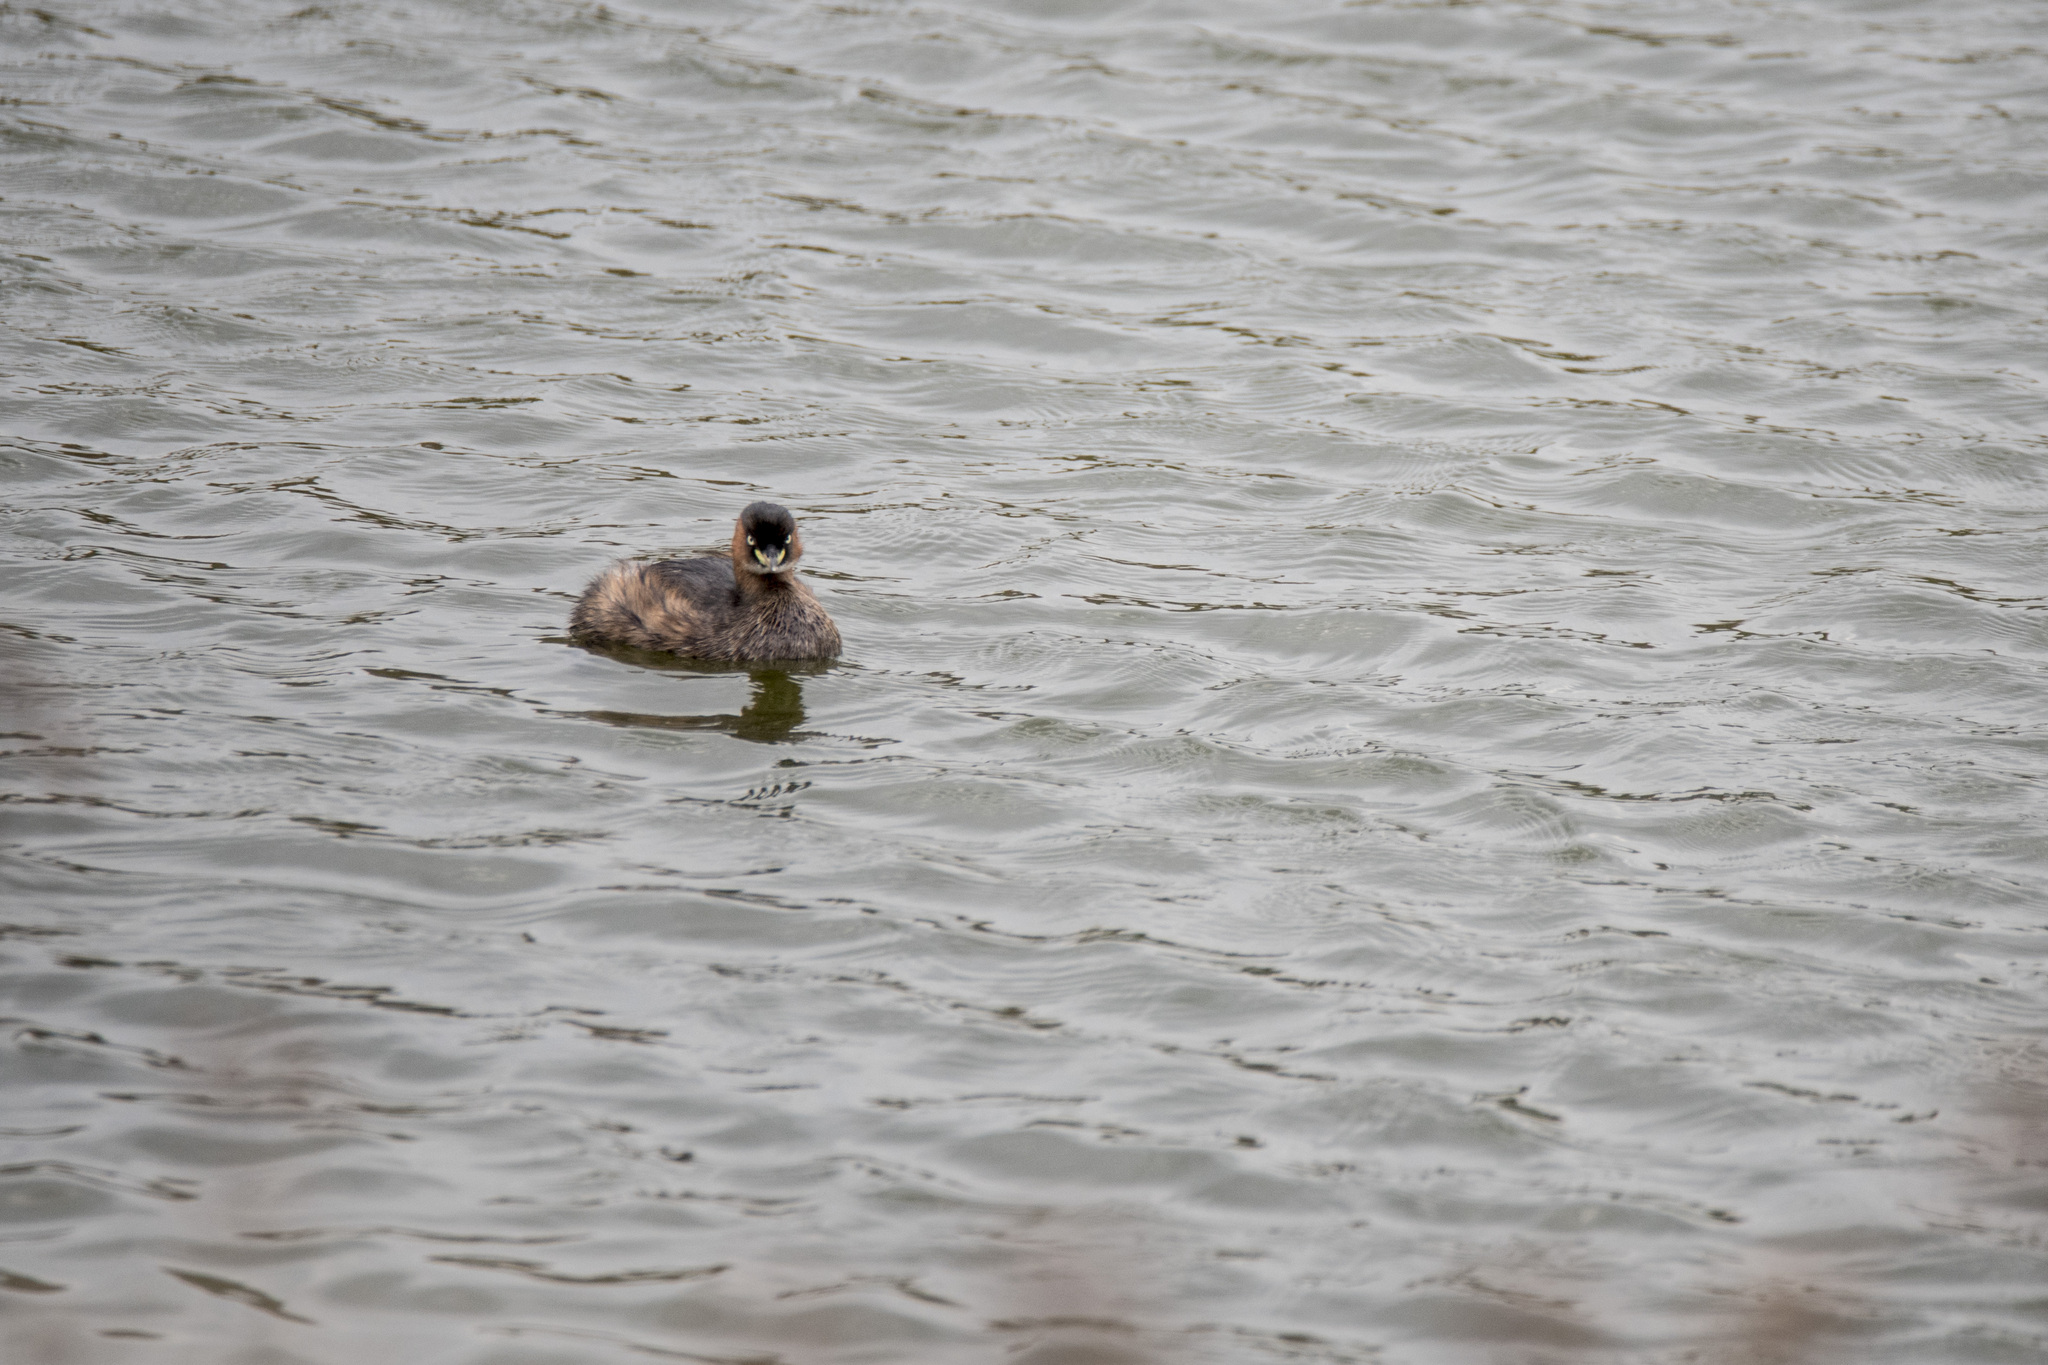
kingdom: Animalia
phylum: Chordata
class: Aves
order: Podicipediformes
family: Podicipedidae
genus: Tachybaptus
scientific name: Tachybaptus ruficollis
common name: Little grebe
